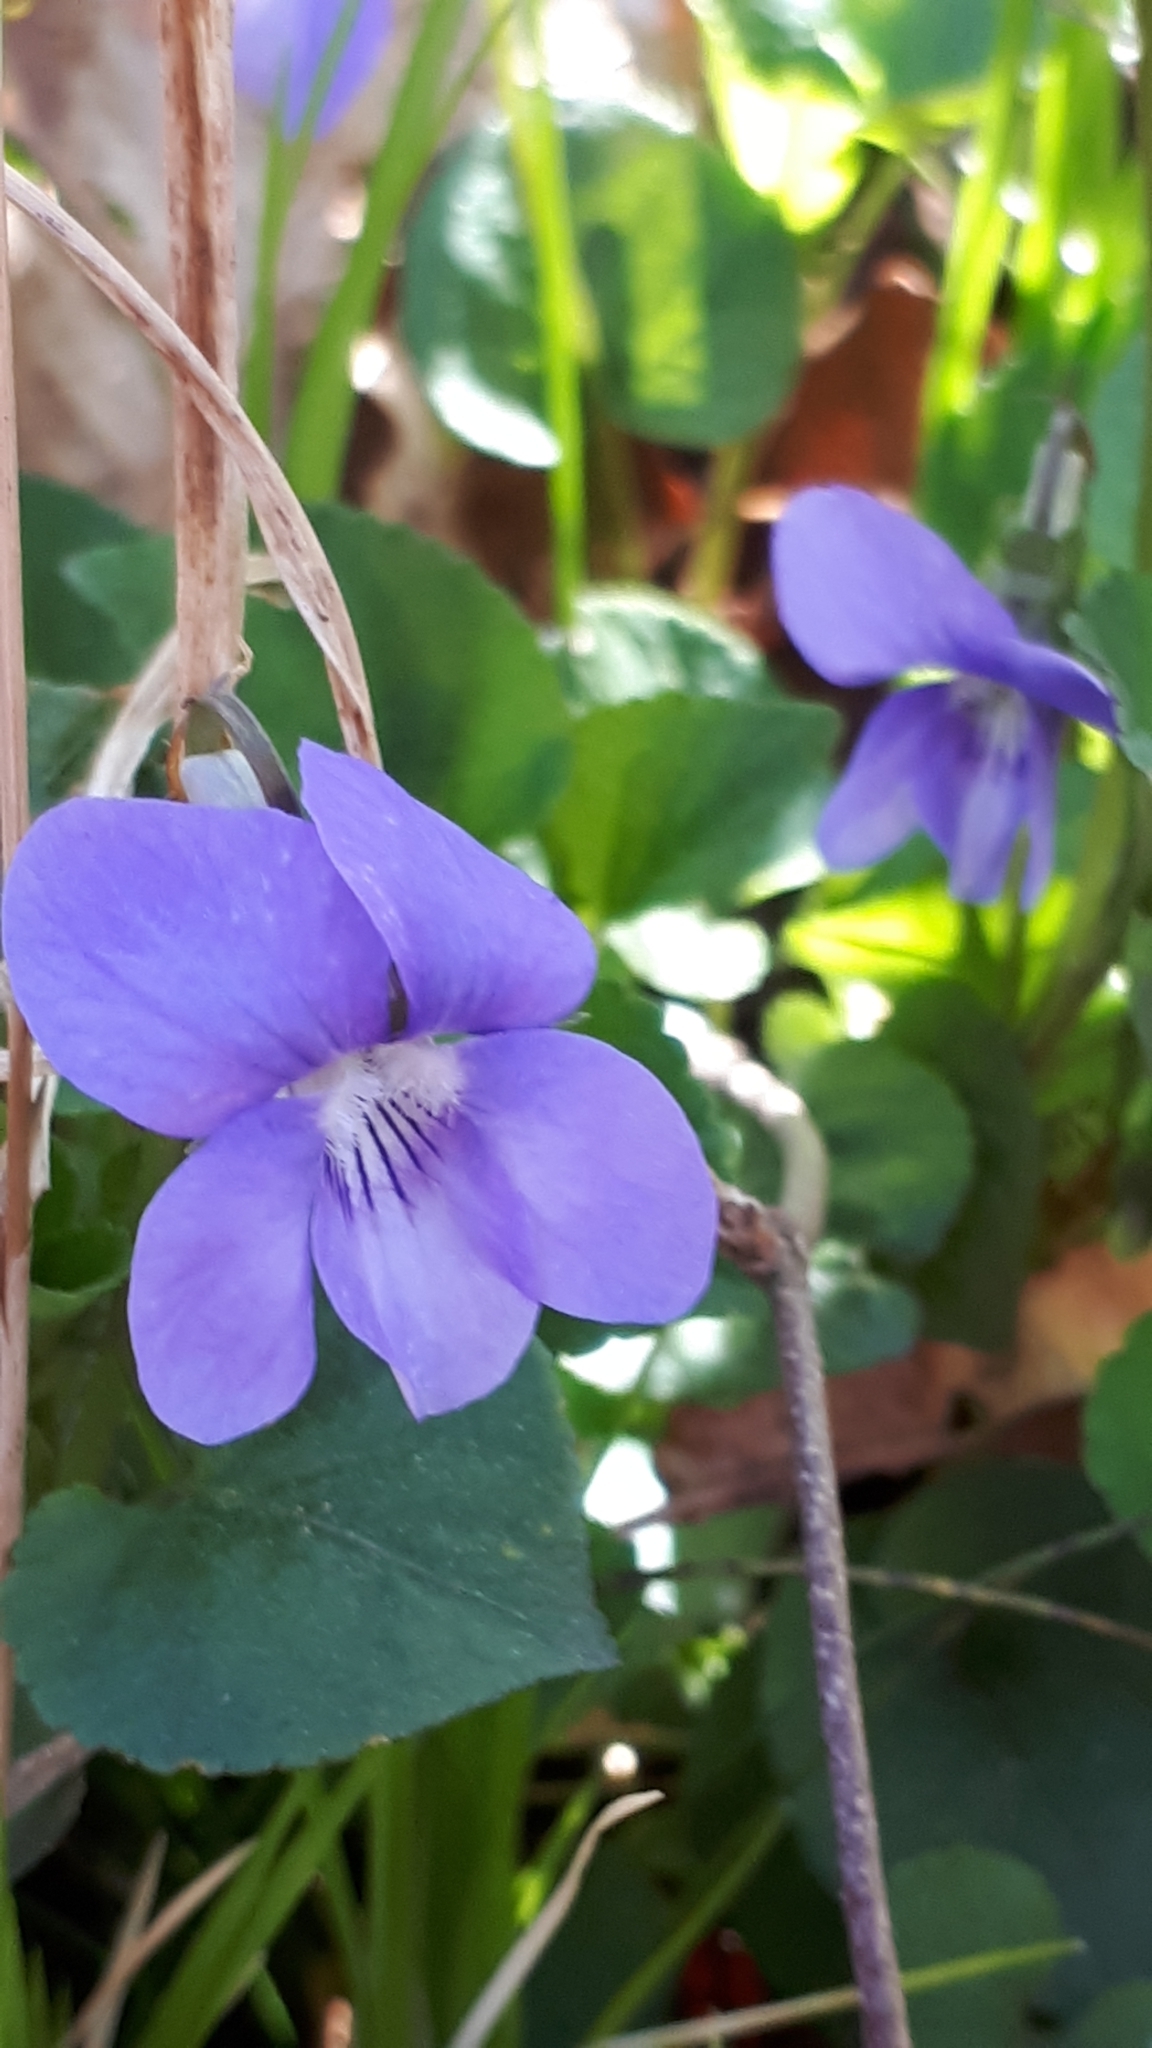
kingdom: Plantae
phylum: Tracheophyta
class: Magnoliopsida
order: Malpighiales
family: Violaceae
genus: Viola
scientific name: Viola riviniana
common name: Common dog-violet
